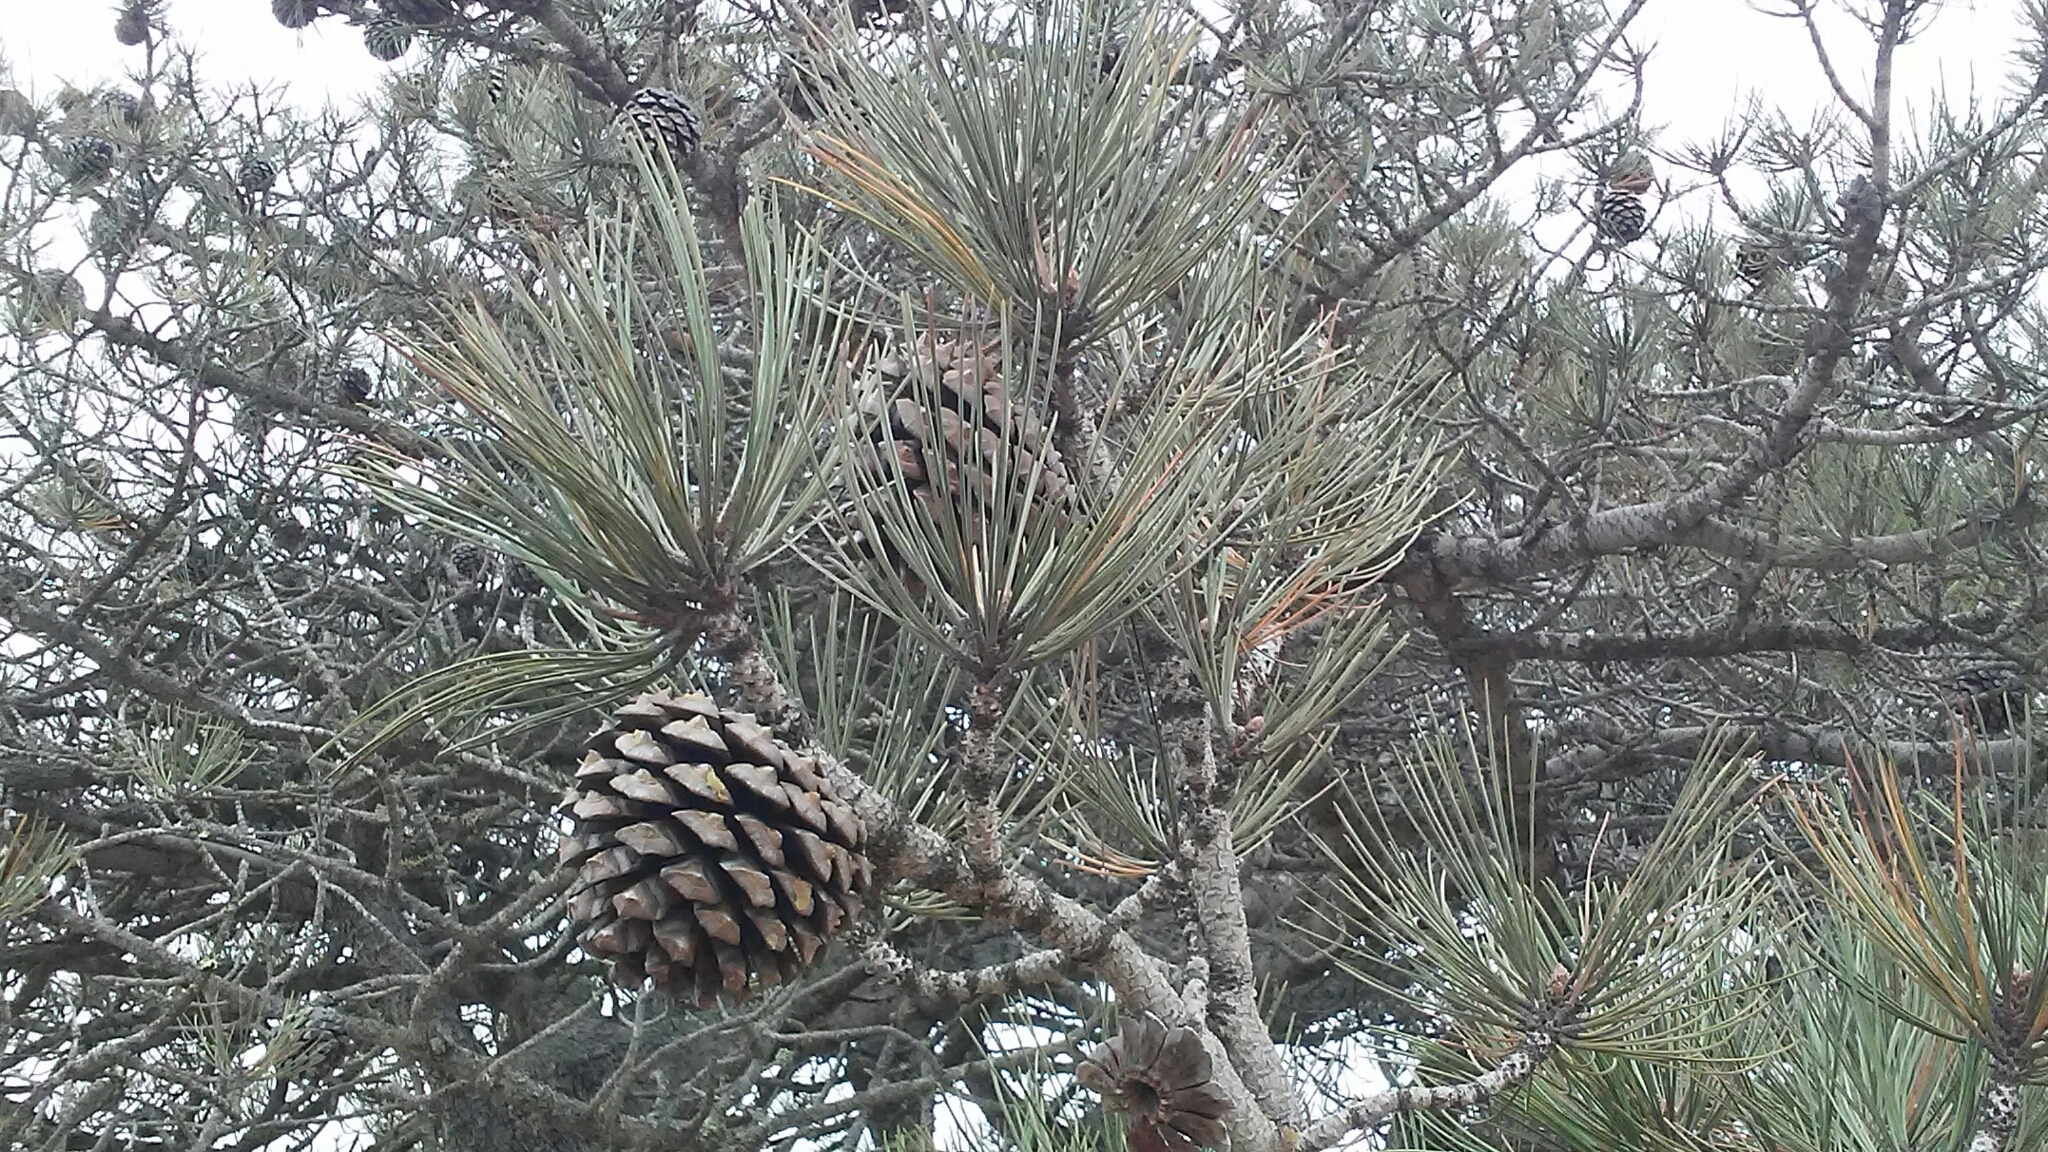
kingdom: Plantae
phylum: Tracheophyta
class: Pinopsida
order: Pinales
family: Pinaceae
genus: Pinus
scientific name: Pinus torreyana
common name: Torrey pine
